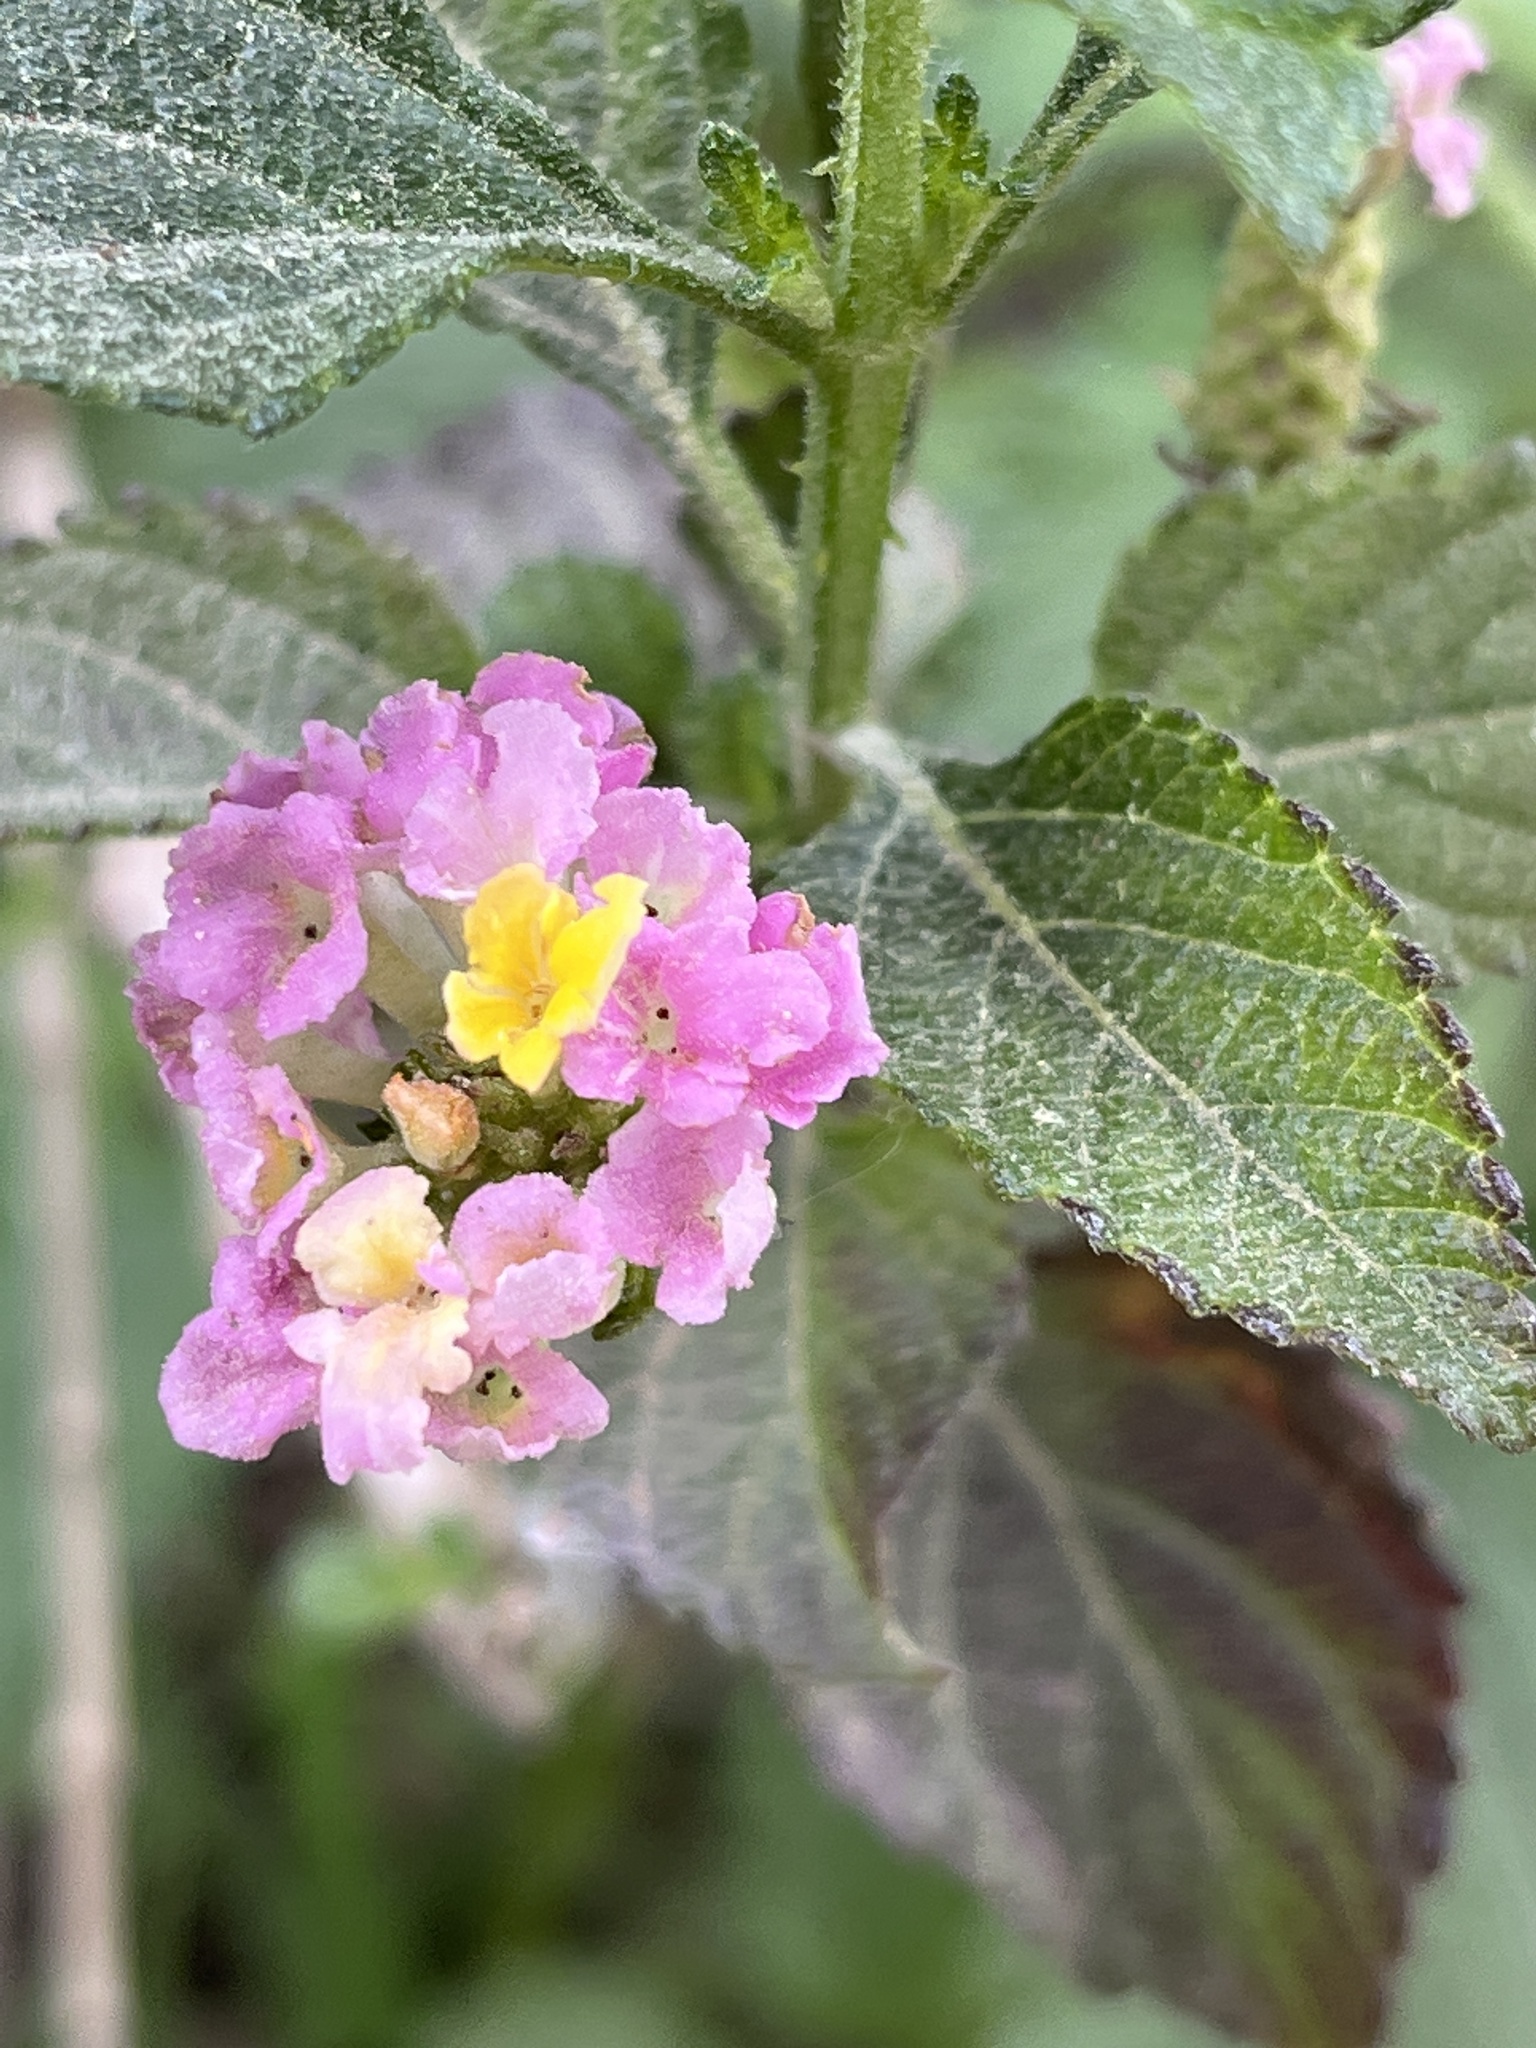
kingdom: Plantae
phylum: Tracheophyta
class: Magnoliopsida
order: Lamiales
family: Verbenaceae
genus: Lantana
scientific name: Lantana camara
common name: Lantana
